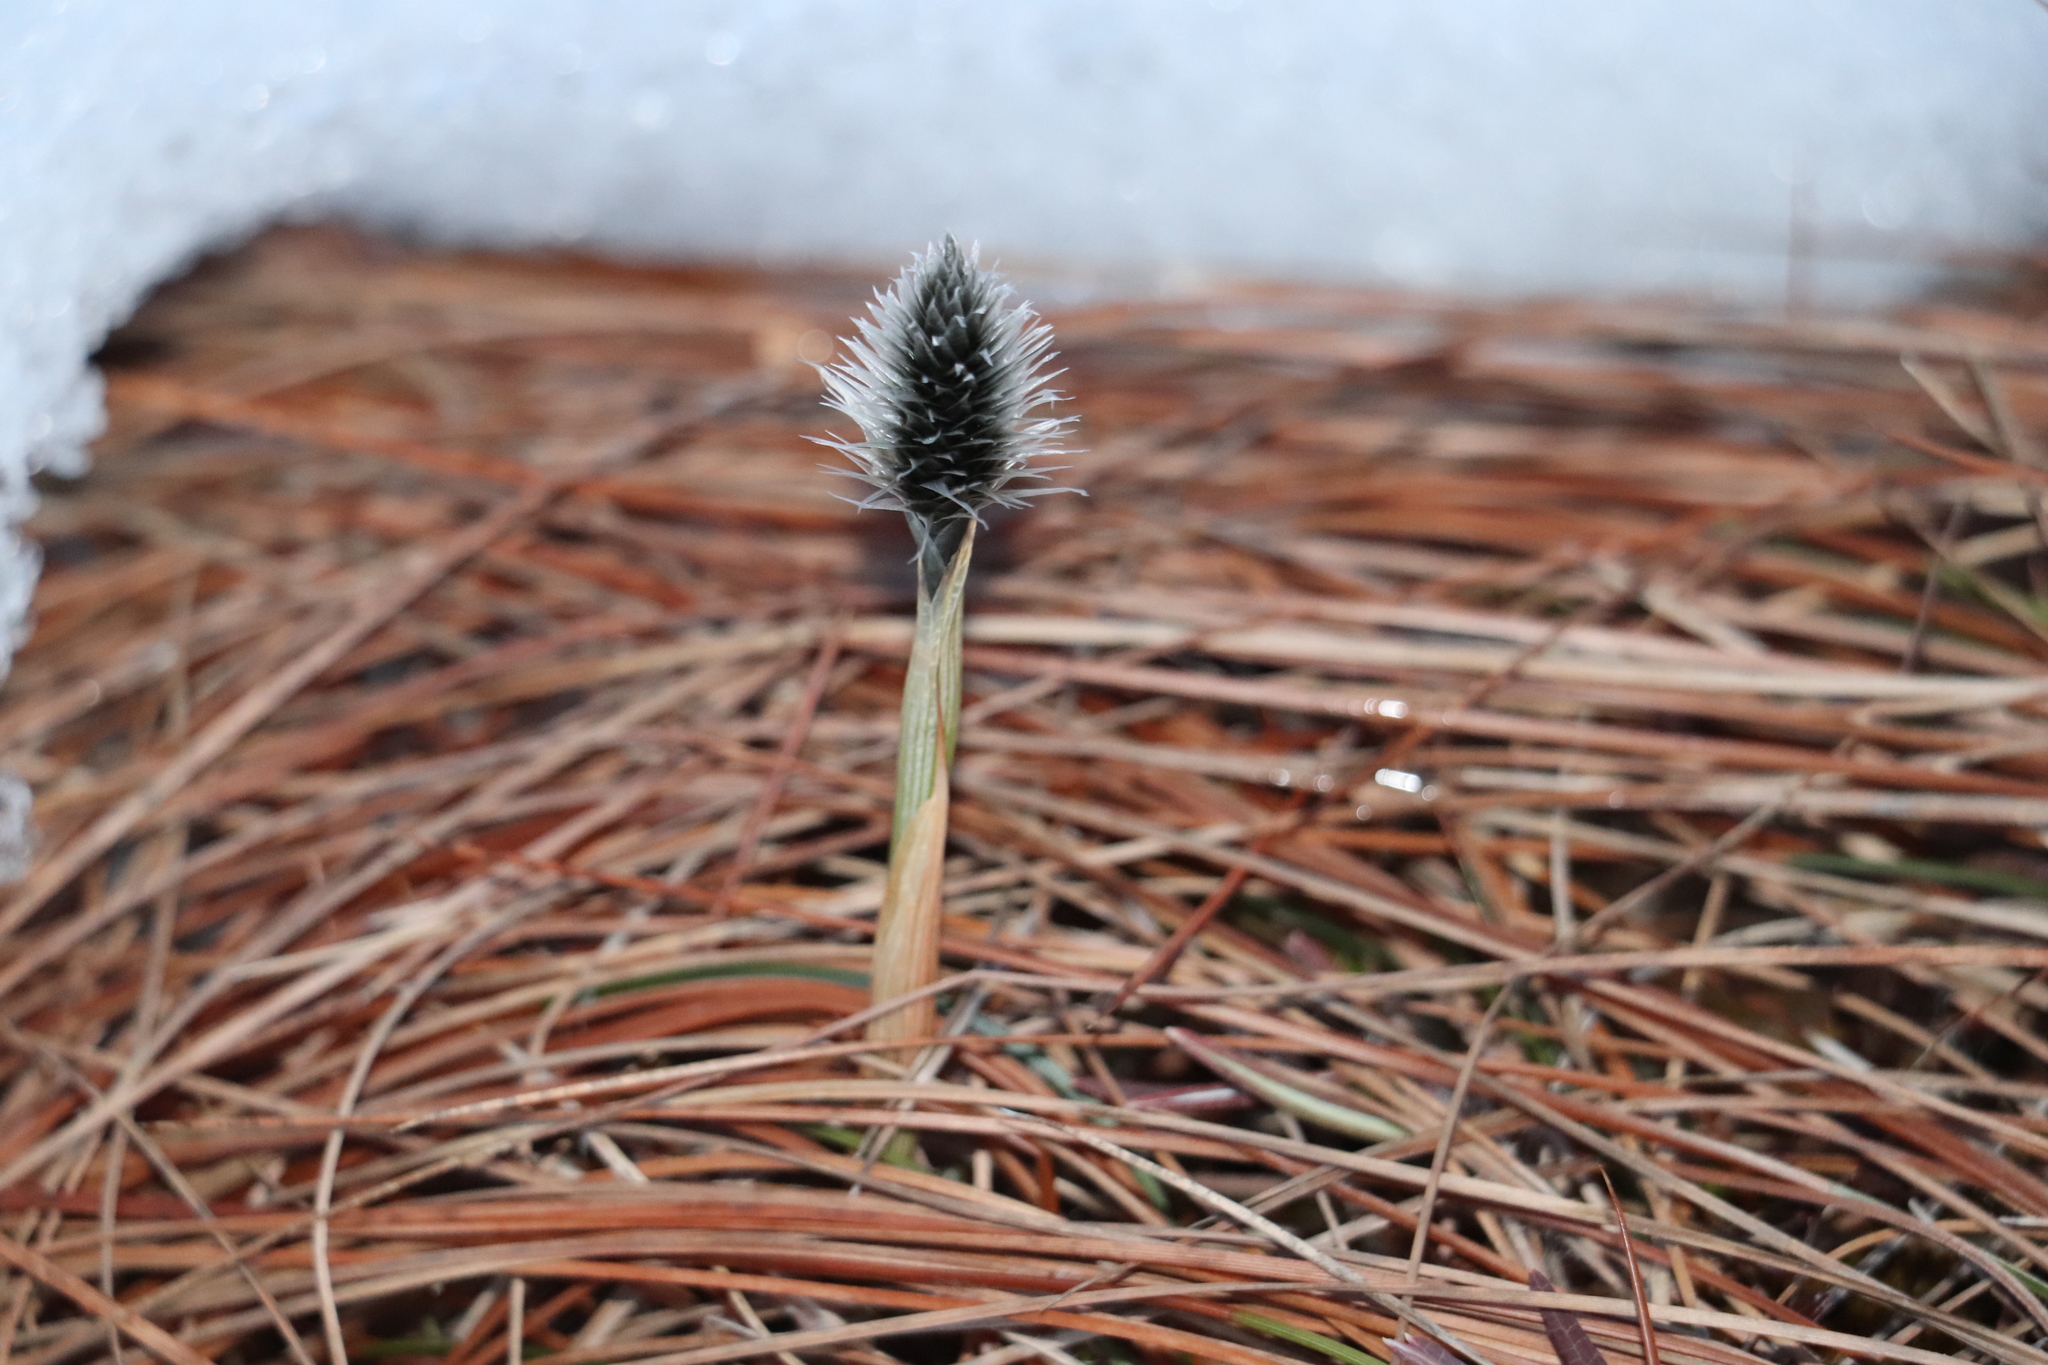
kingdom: Plantae
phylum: Tracheophyta
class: Liliopsida
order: Poales
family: Cyperaceae
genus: Eriophorum
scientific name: Eriophorum vaginatum
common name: Hare's-tail cottongrass
